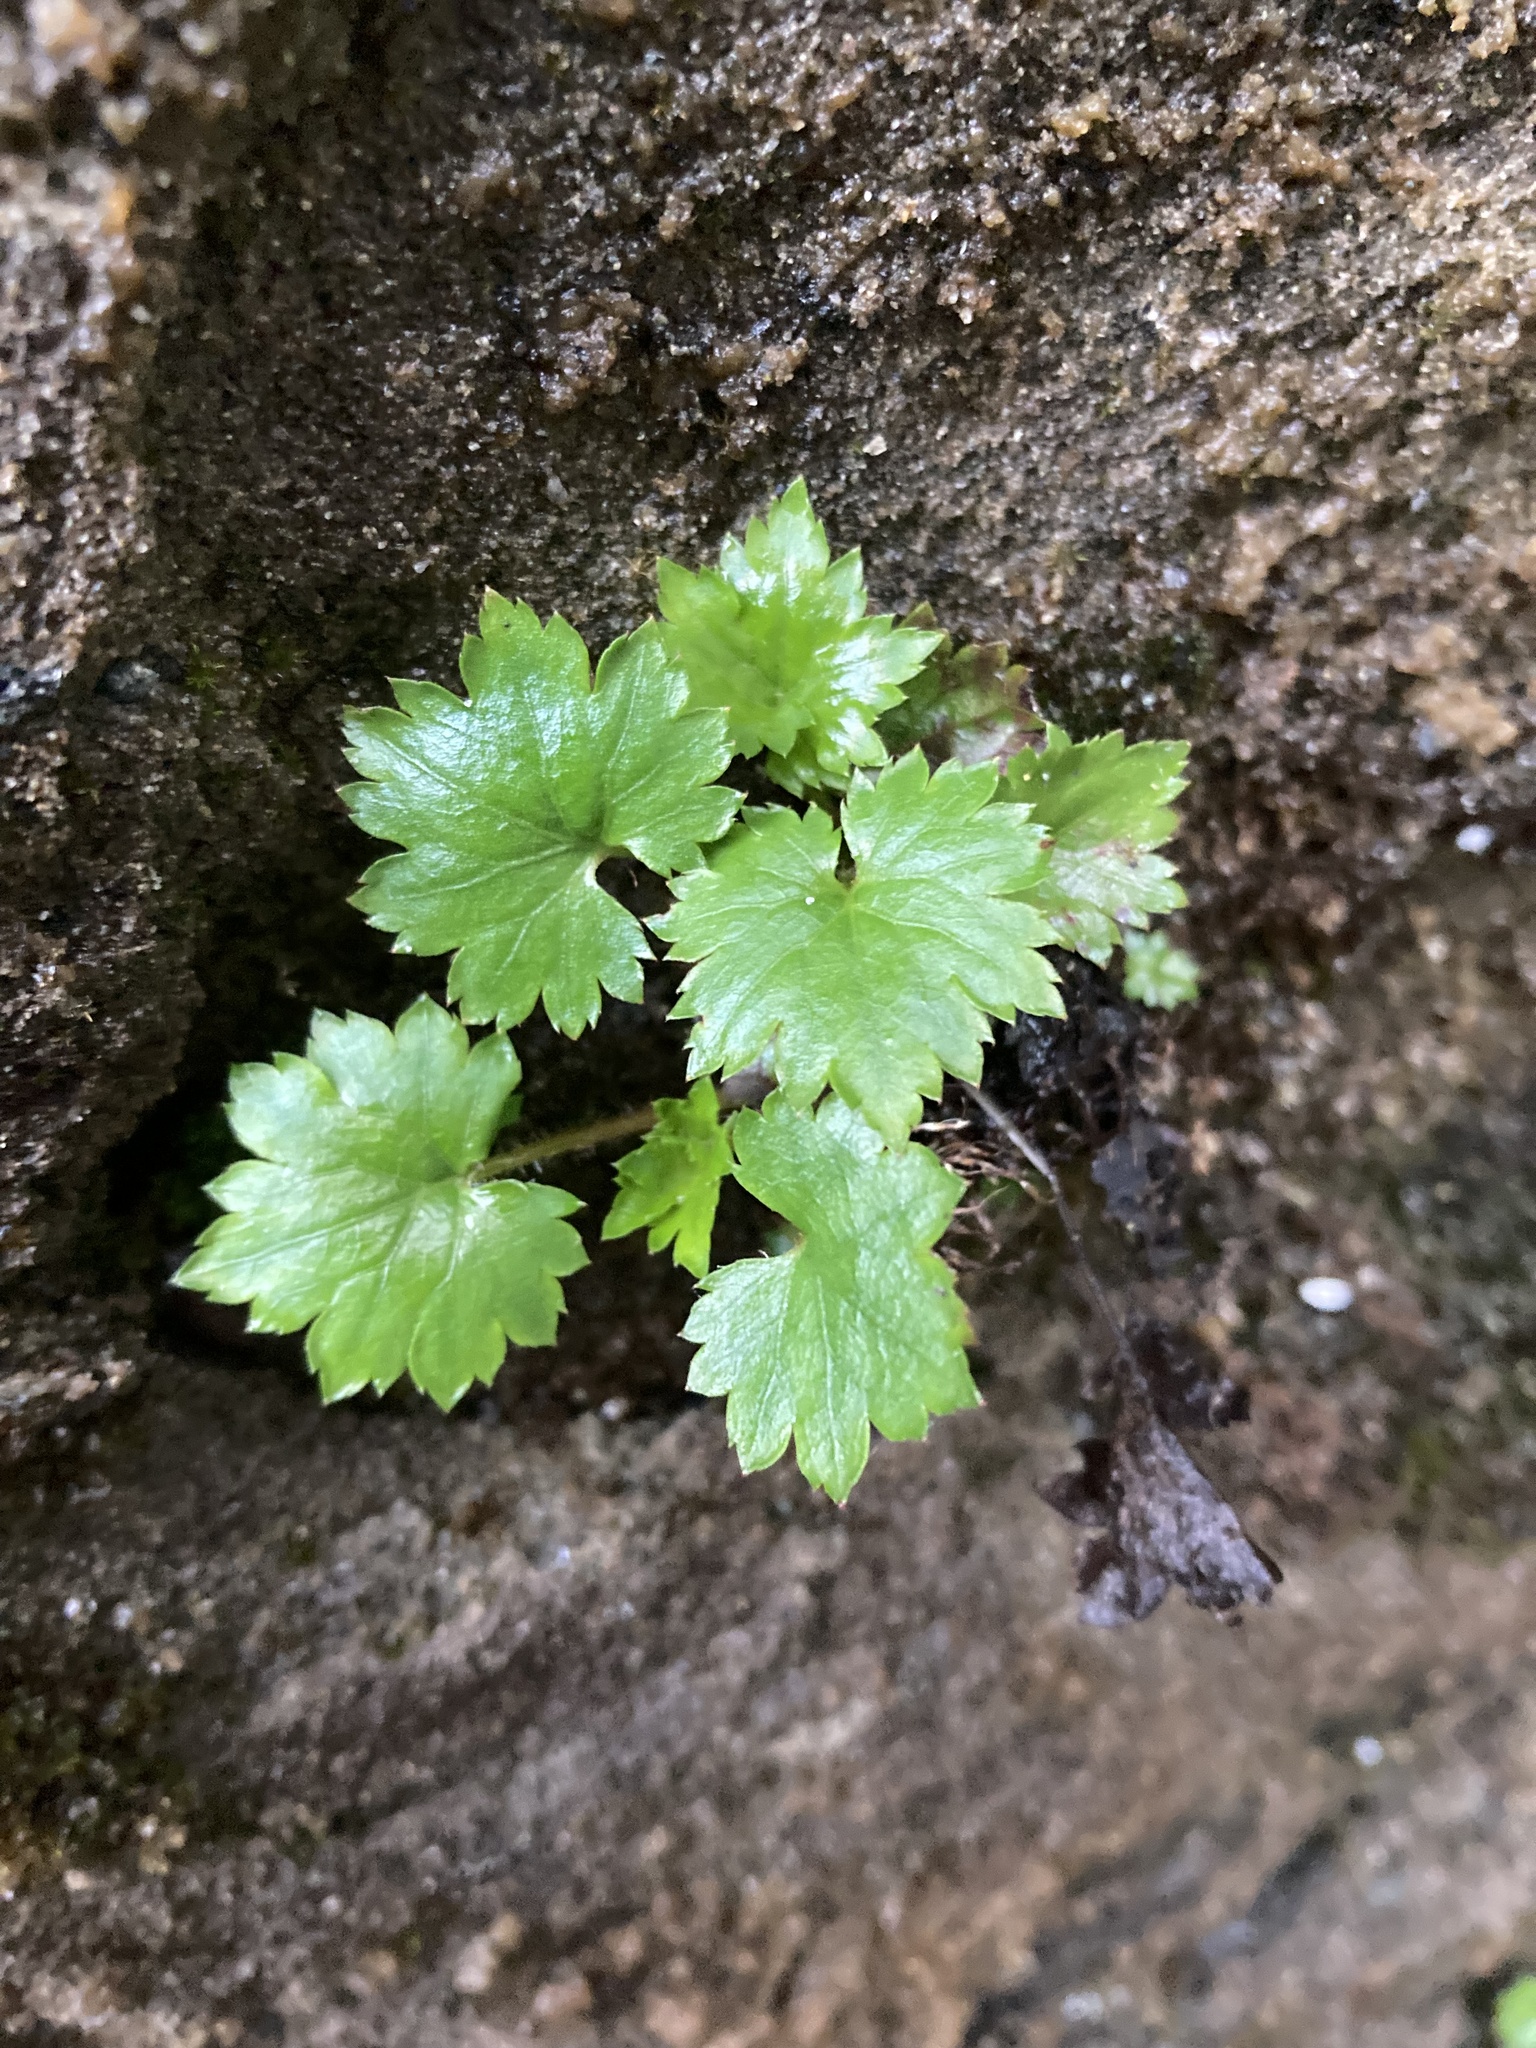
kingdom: Plantae
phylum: Tracheophyta
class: Magnoliopsida
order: Saxifragales
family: Saxifragaceae
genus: Boykinia
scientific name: Boykinia occidentalis
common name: Coast boykinia
